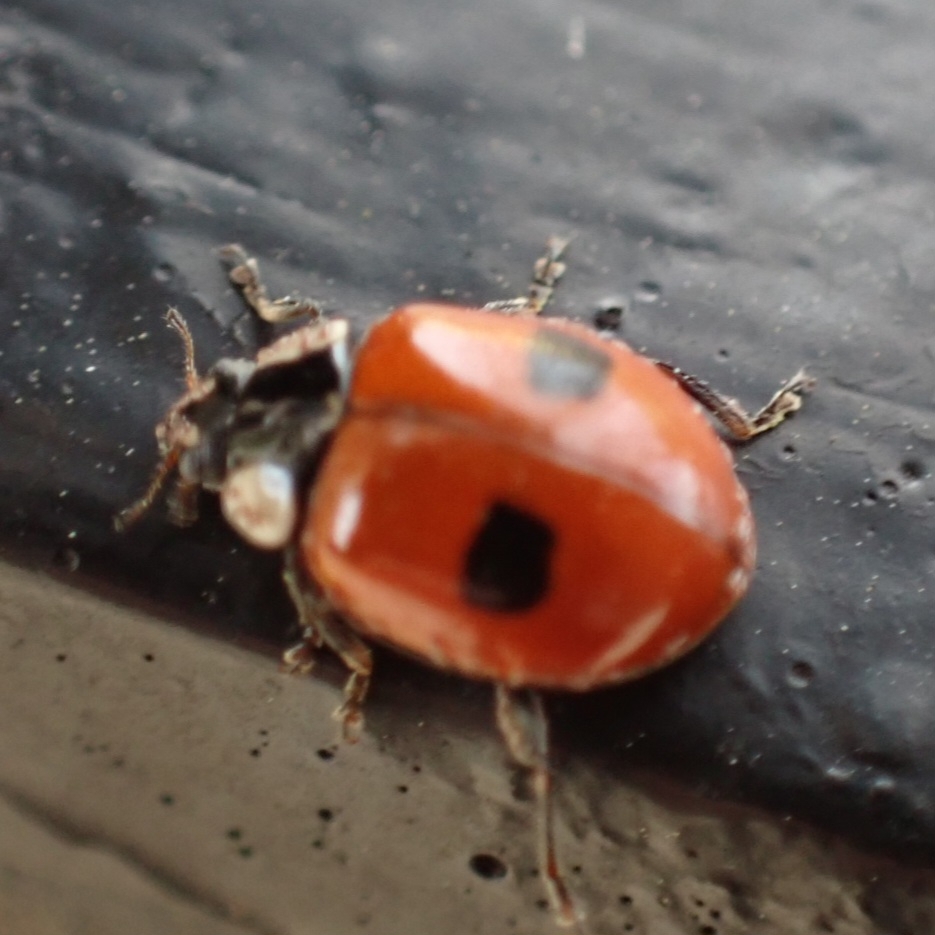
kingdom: Animalia
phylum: Arthropoda
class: Insecta
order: Coleoptera
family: Coccinellidae
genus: Adalia
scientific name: Adalia bipunctata
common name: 2-spot ladybird
